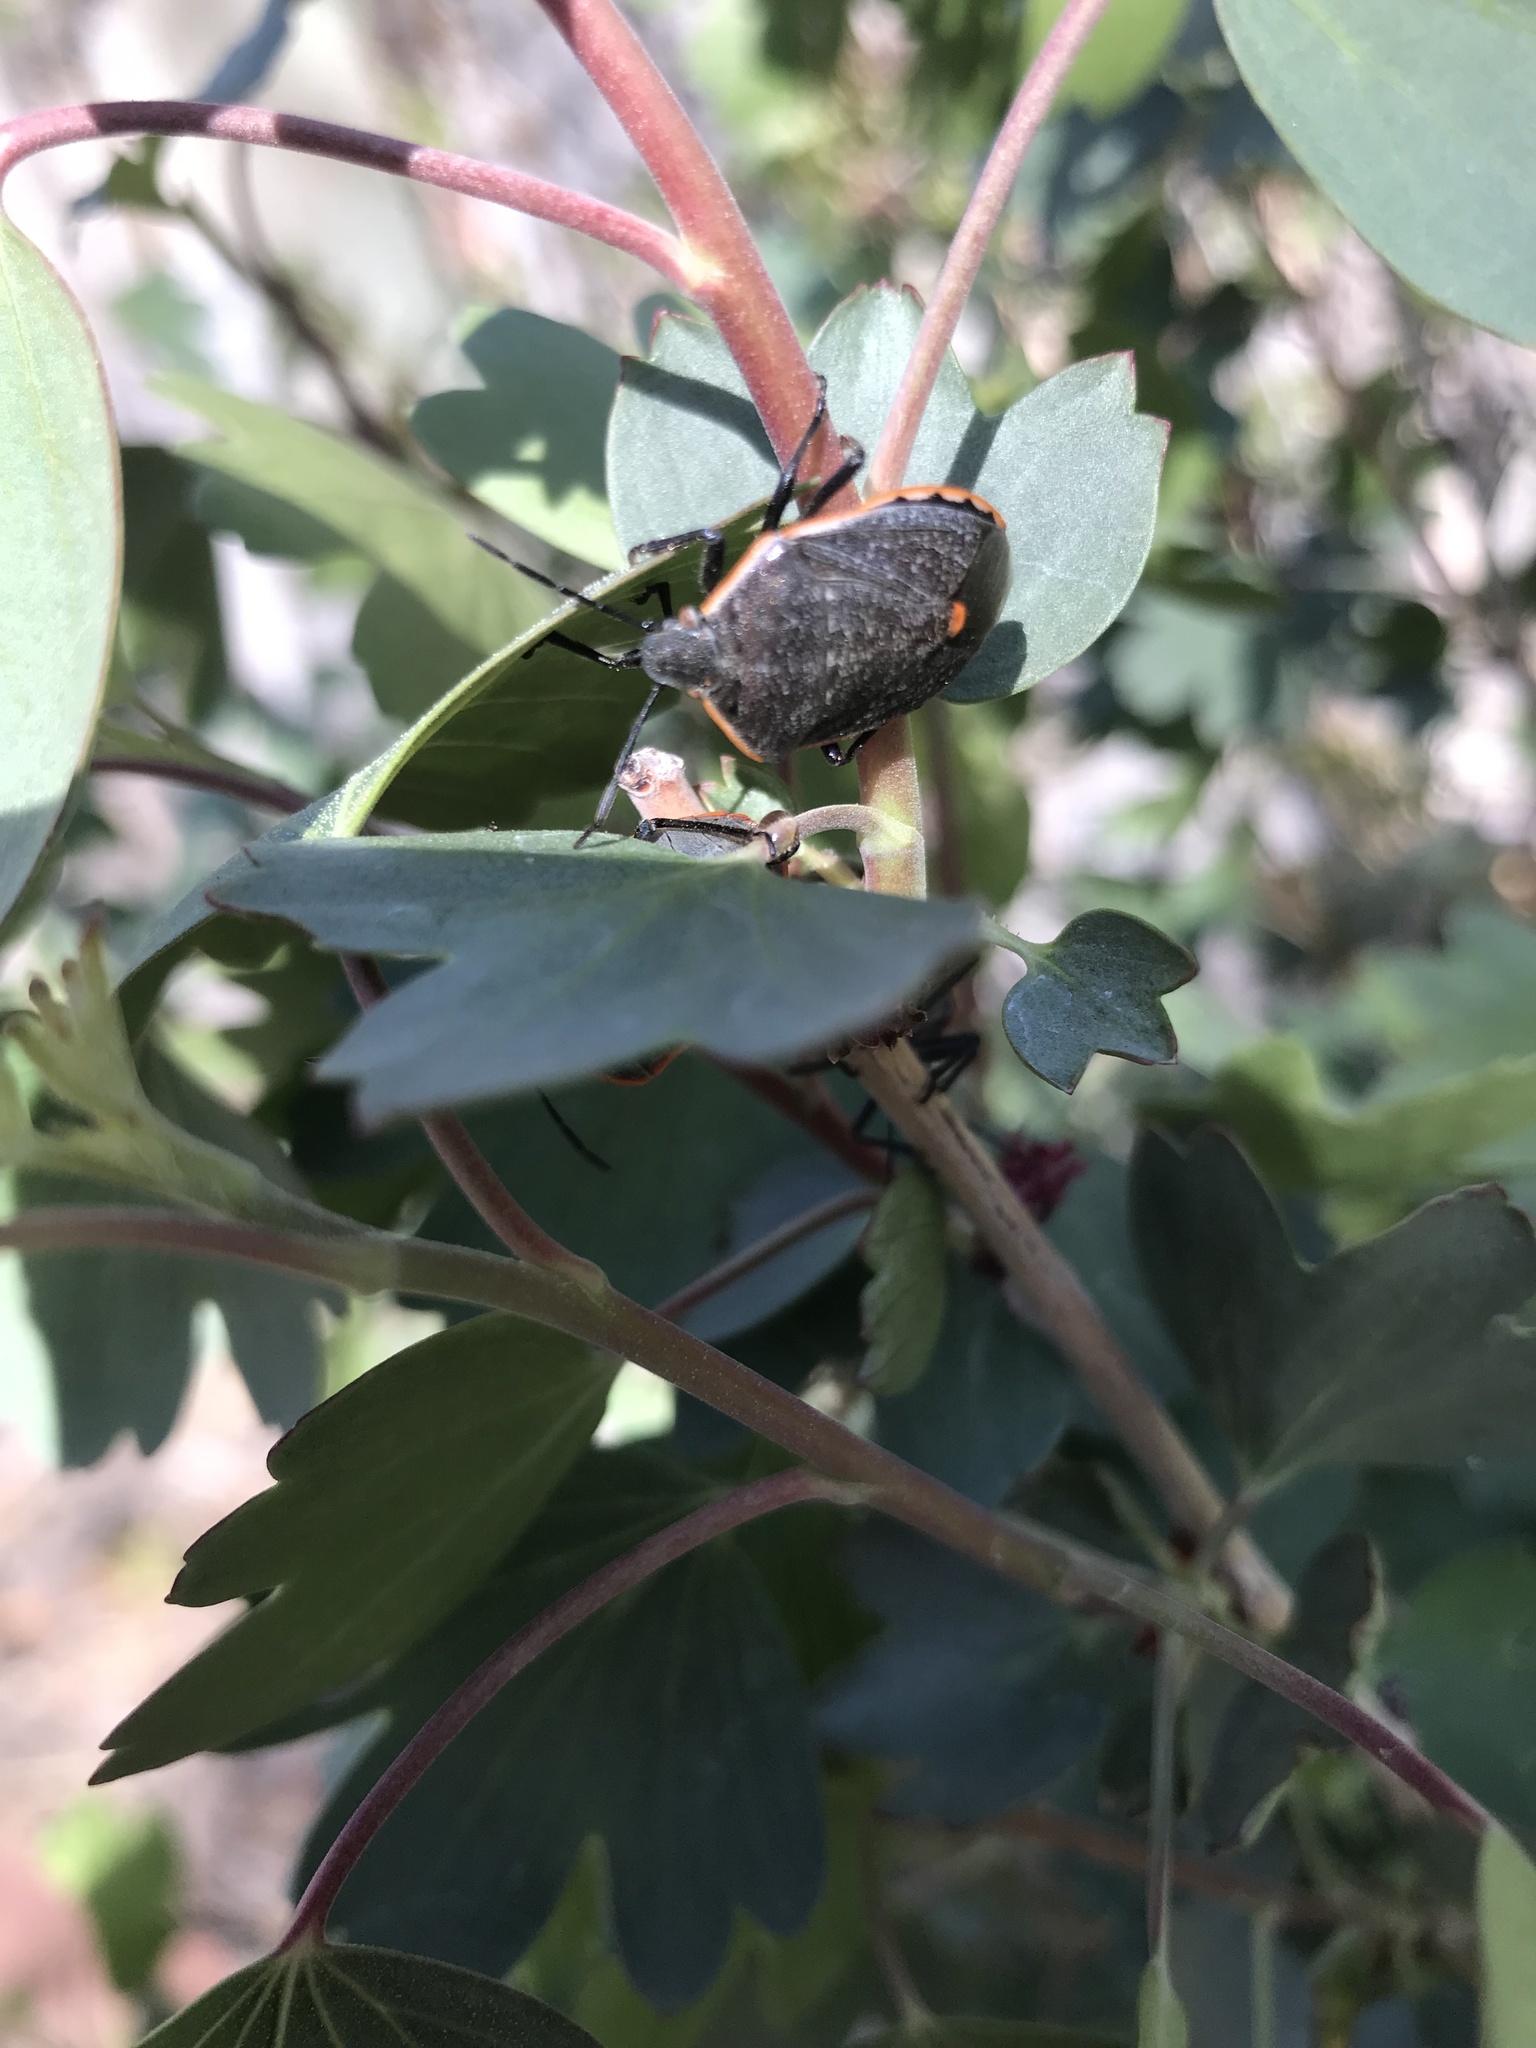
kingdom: Animalia
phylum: Arthropoda
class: Insecta
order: Hemiptera
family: Pentatomidae
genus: Chlorochroa
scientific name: Chlorochroa ligata
